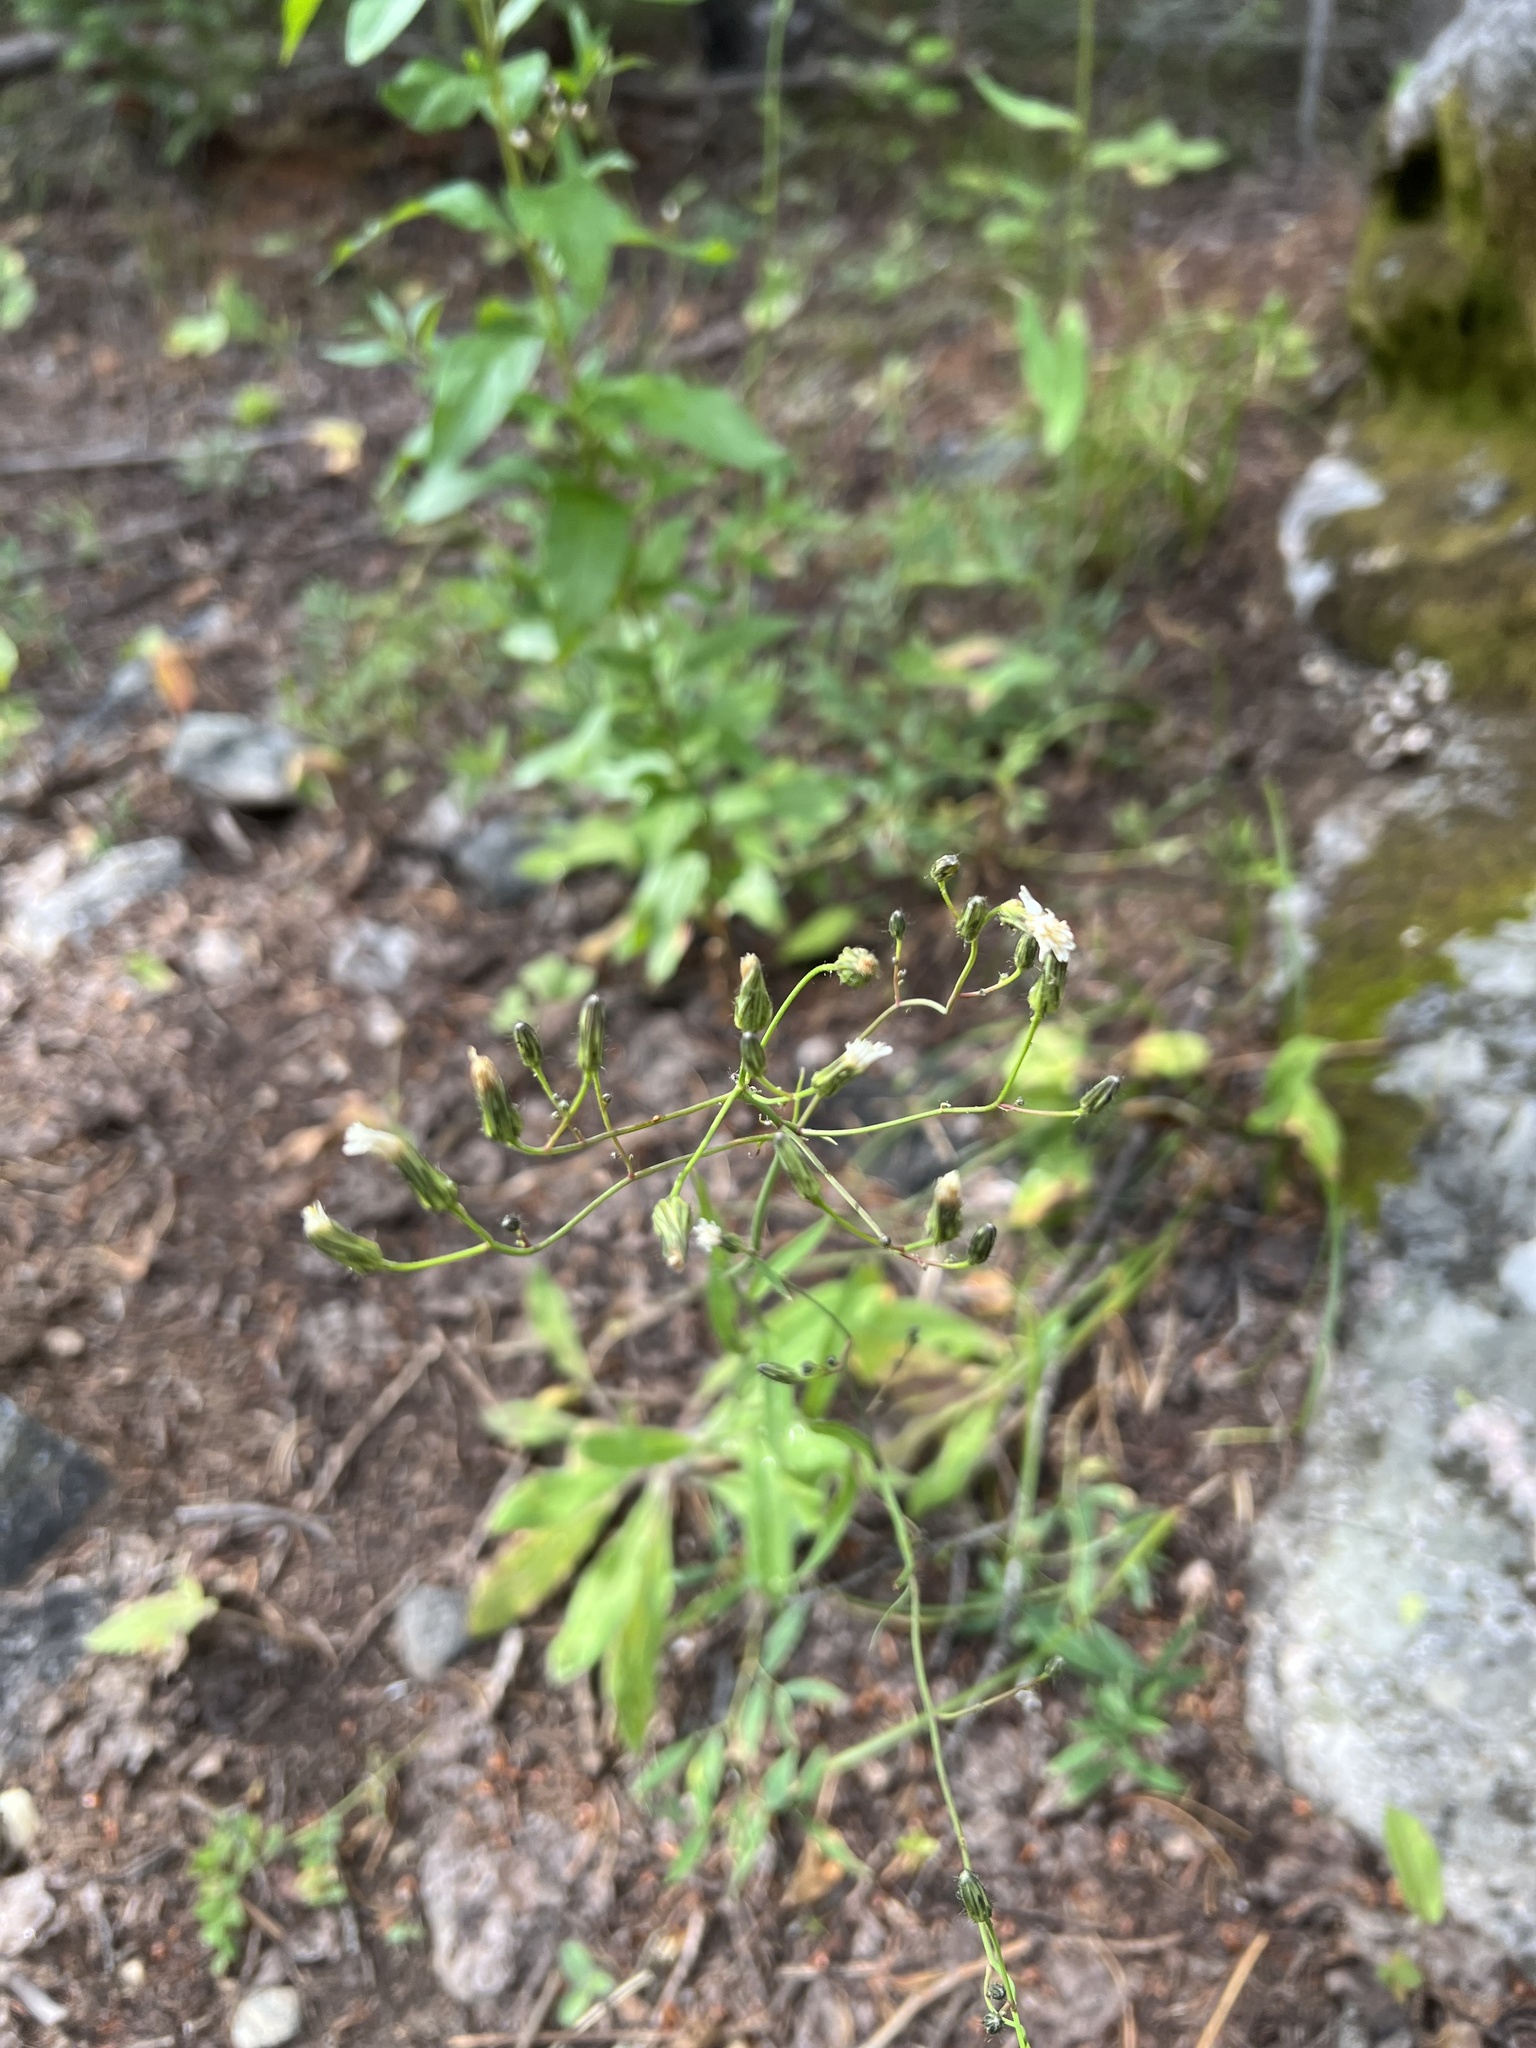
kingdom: Plantae
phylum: Tracheophyta
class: Magnoliopsida
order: Asterales
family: Asteraceae
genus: Hieracium
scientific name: Hieracium albiflorum
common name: White hawkweed
